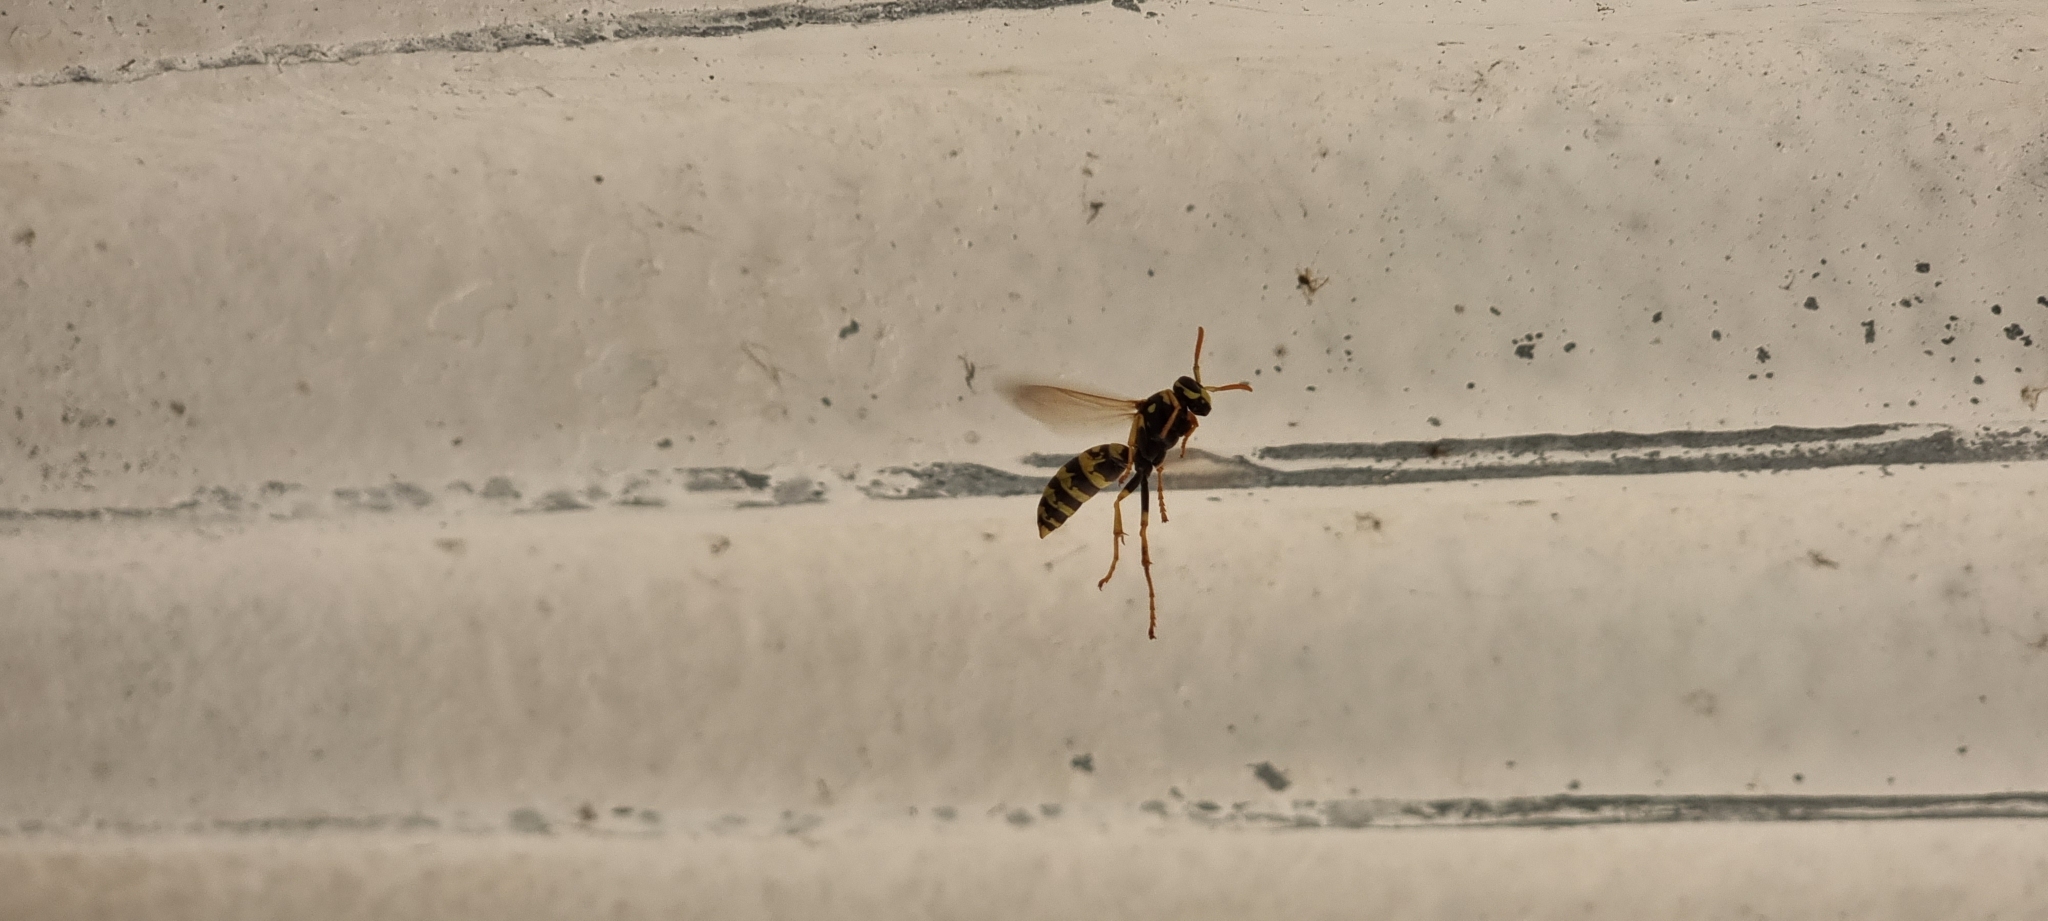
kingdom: Animalia
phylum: Arthropoda
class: Insecta
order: Hymenoptera
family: Eumenidae
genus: Polistes
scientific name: Polistes dominula
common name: Paper wasp
